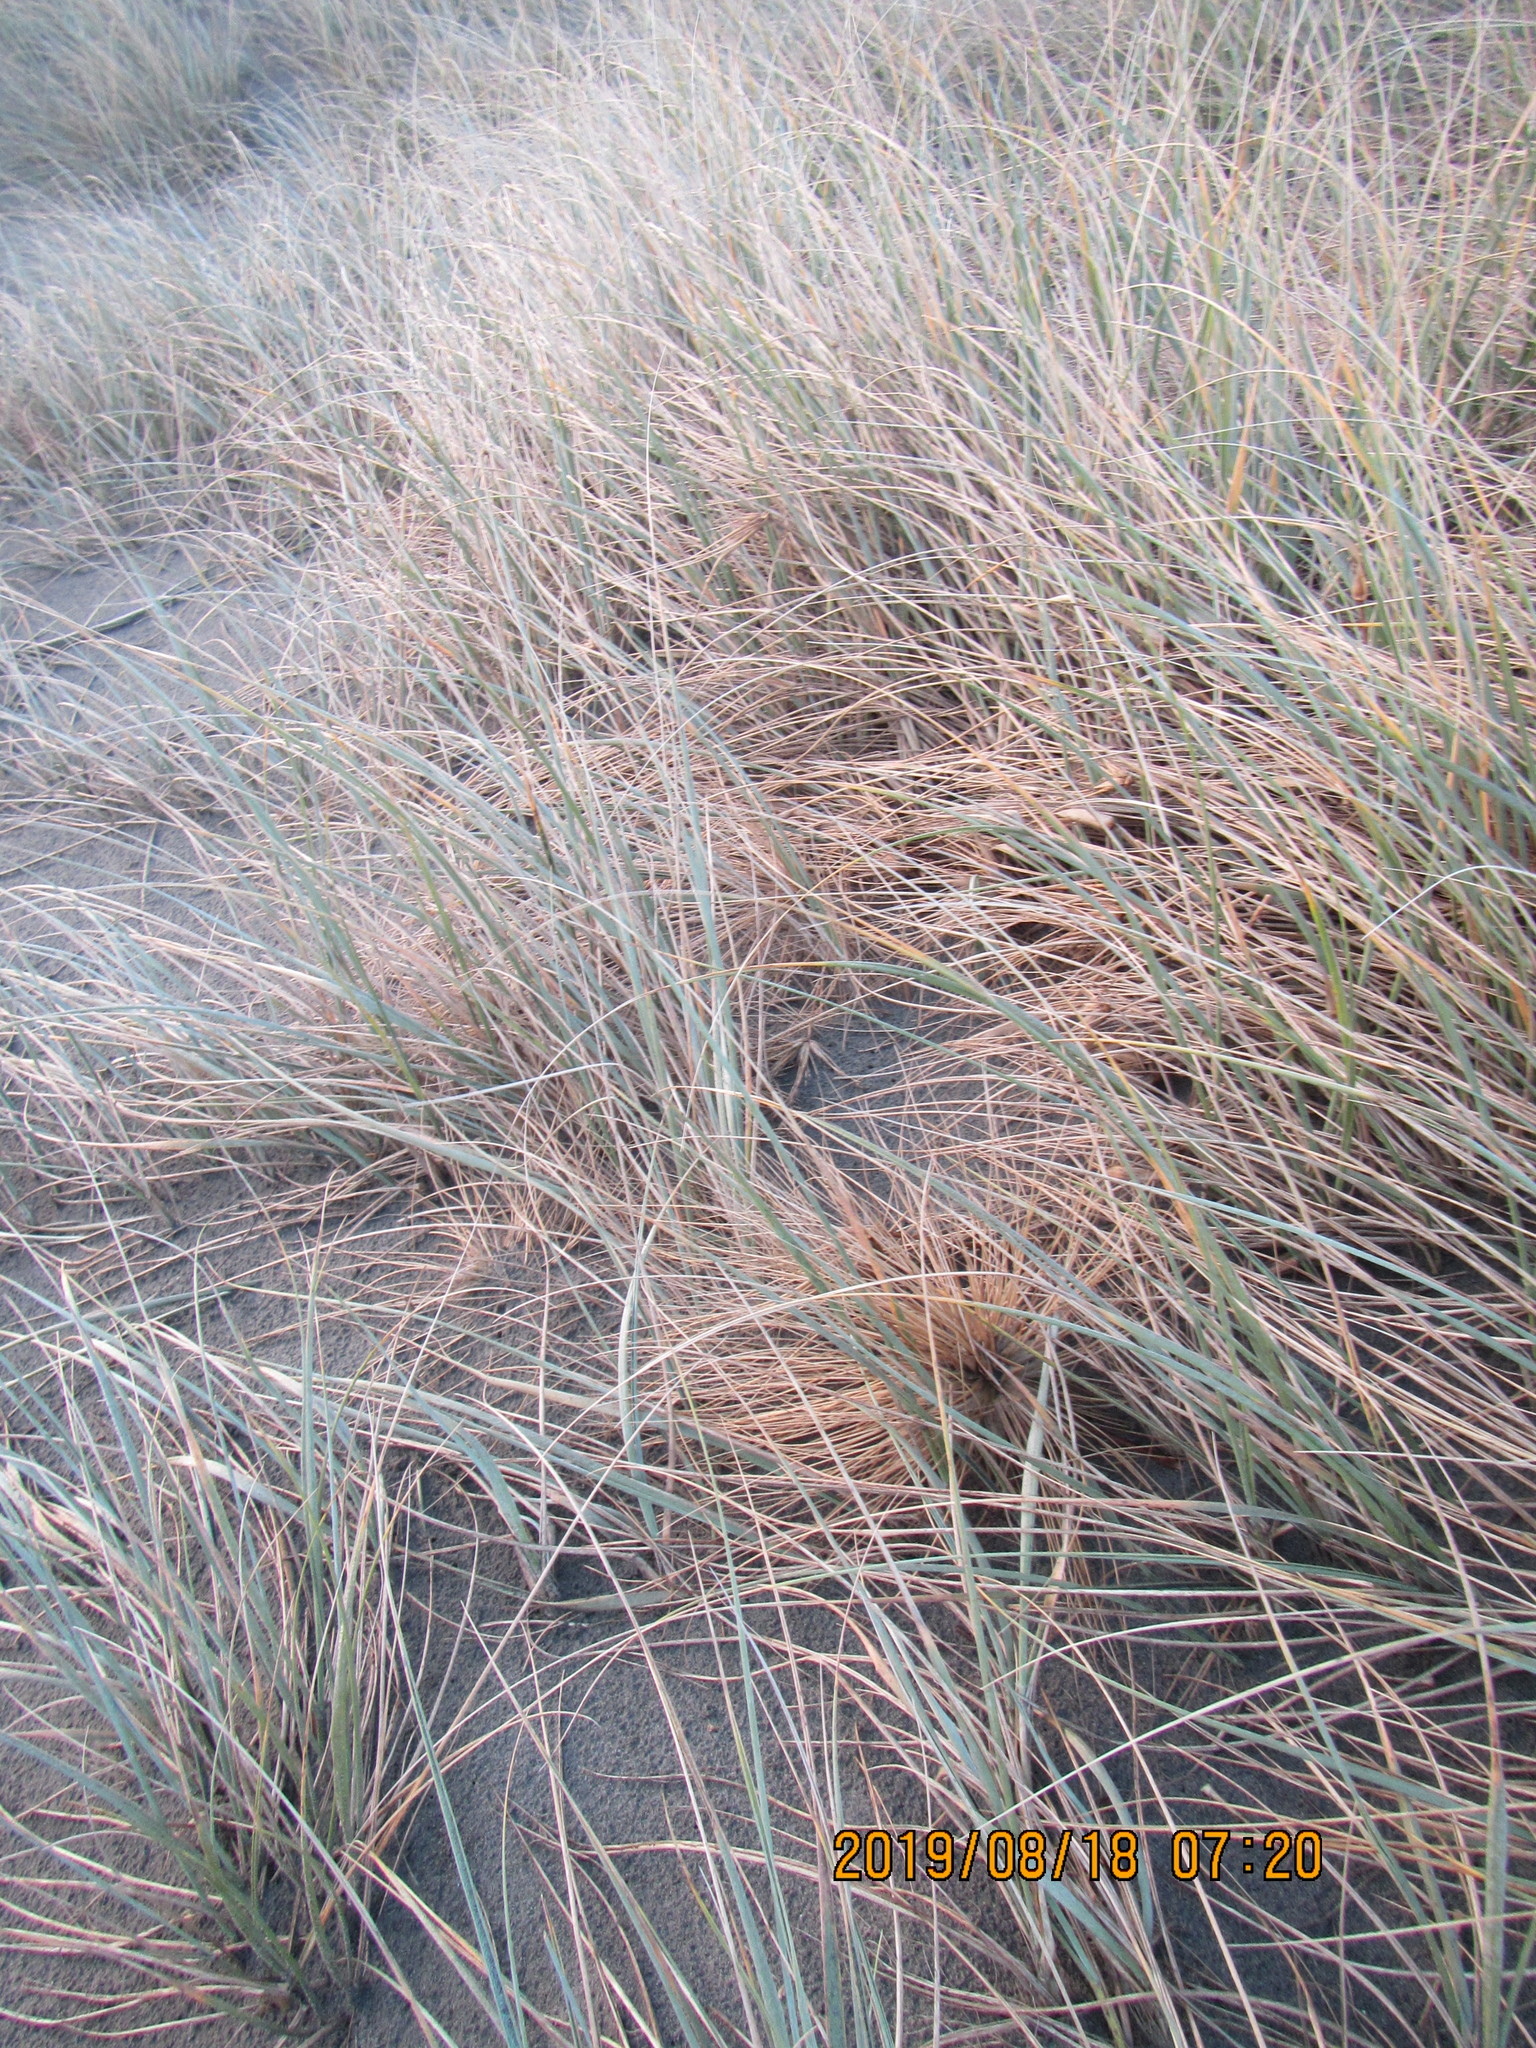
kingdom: Plantae
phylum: Tracheophyta
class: Liliopsida
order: Poales
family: Poaceae
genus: Spinifex
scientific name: Spinifex sericeus
